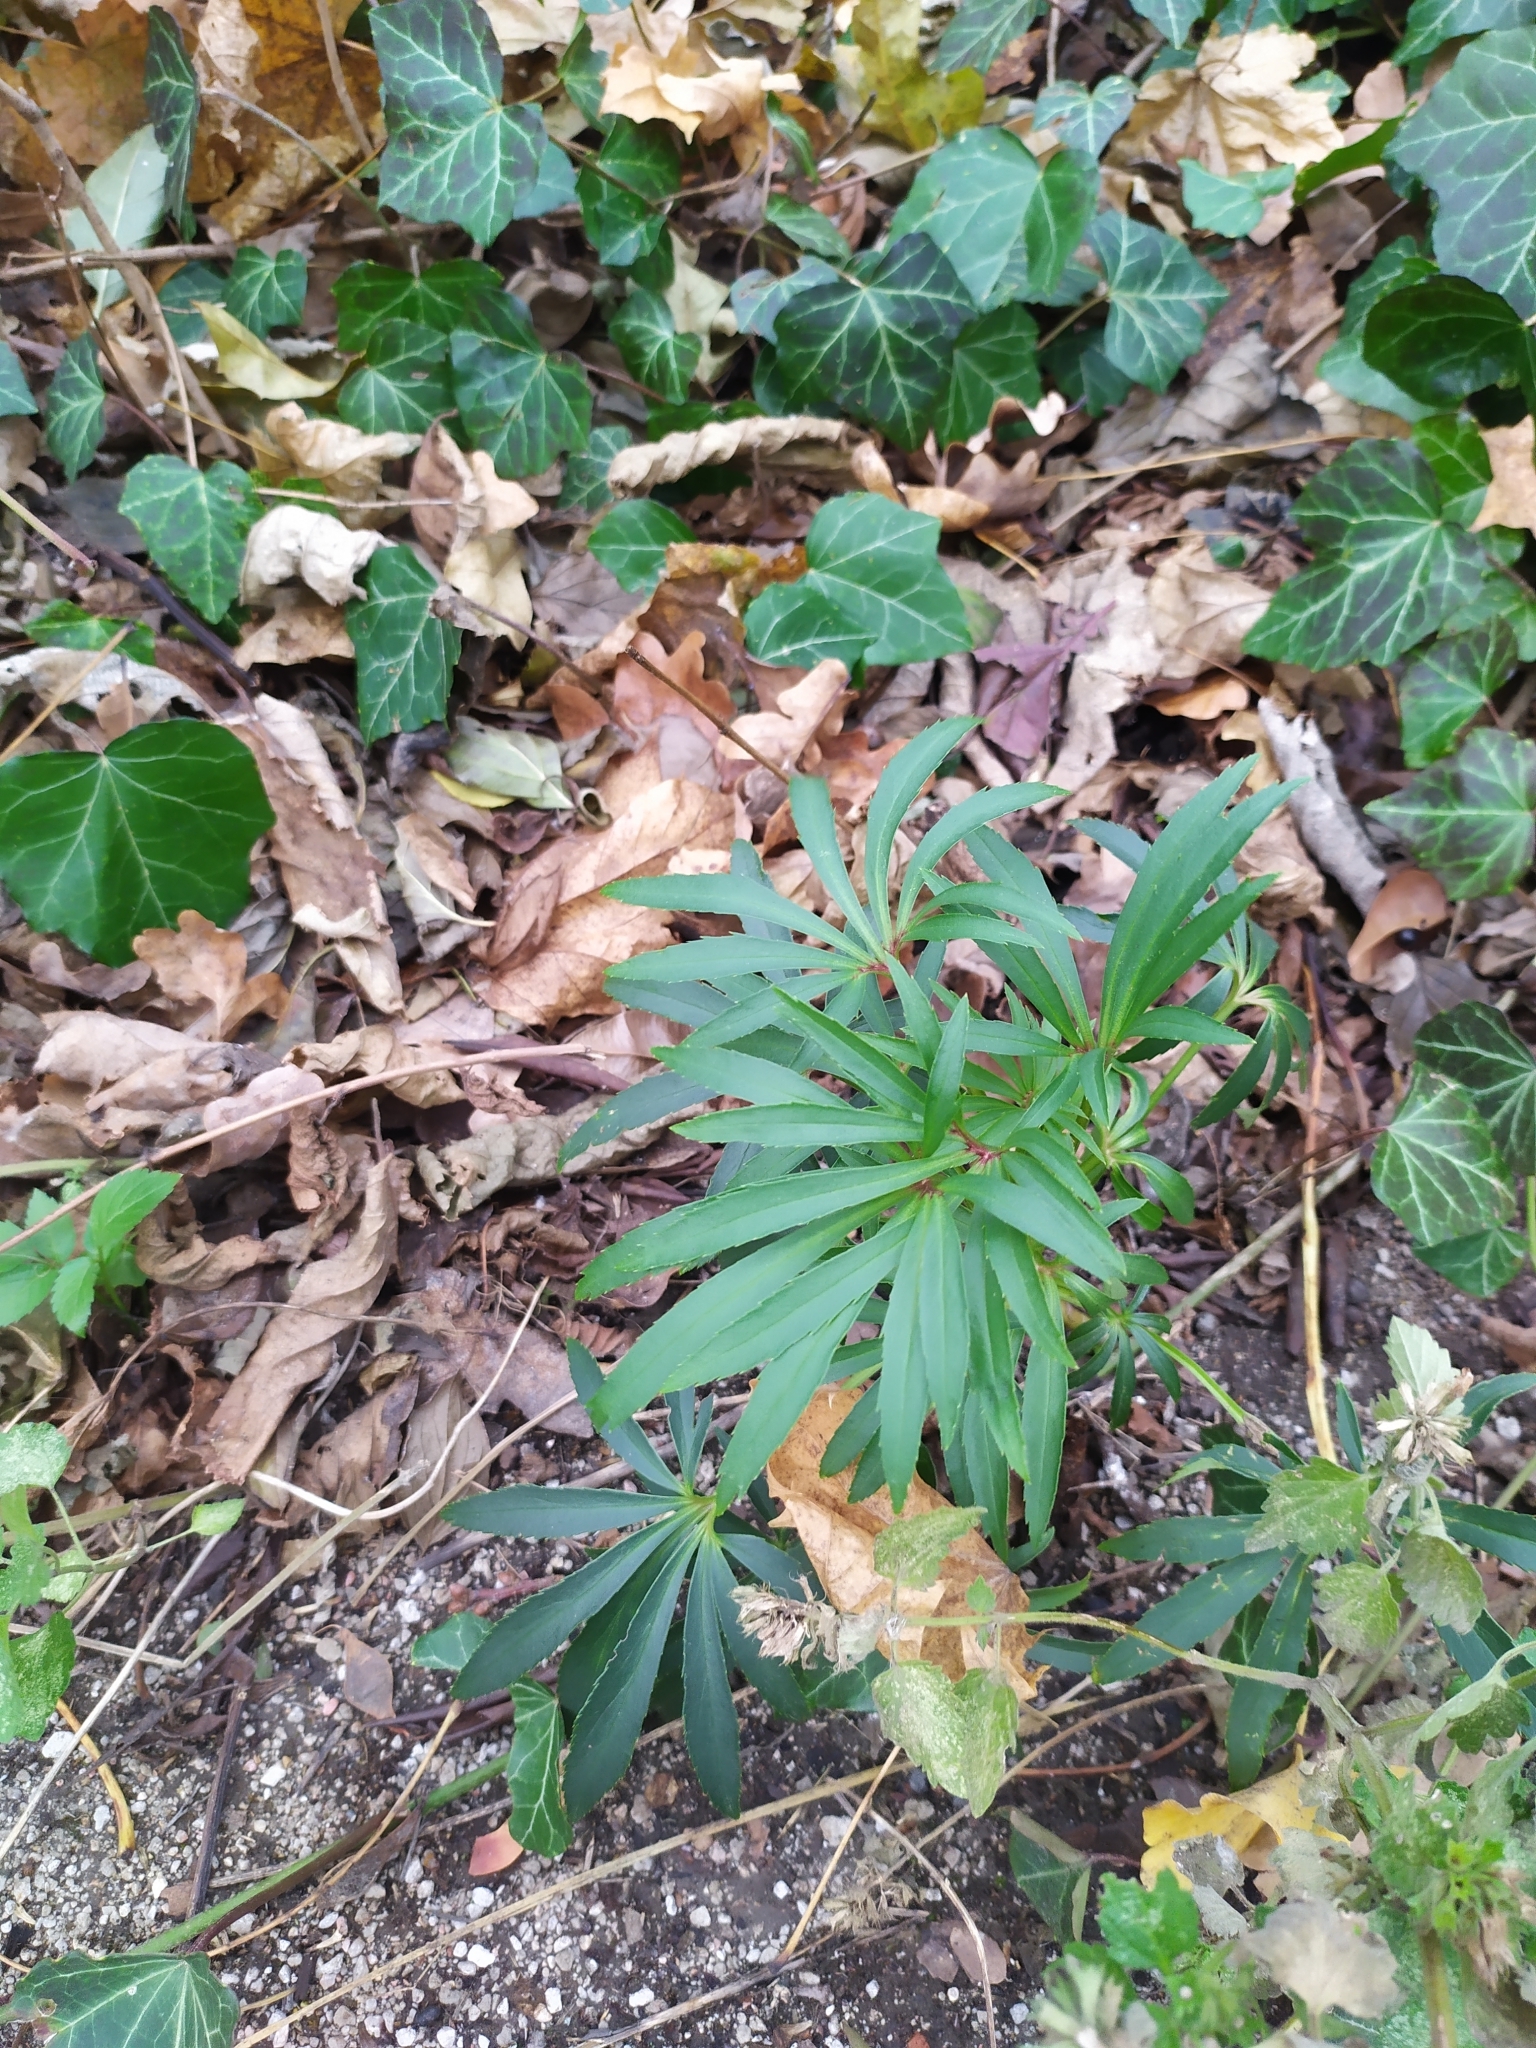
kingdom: Plantae
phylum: Tracheophyta
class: Magnoliopsida
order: Ranunculales
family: Ranunculaceae
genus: Helleborus
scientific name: Helleborus foetidus
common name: Stinking hellebore
